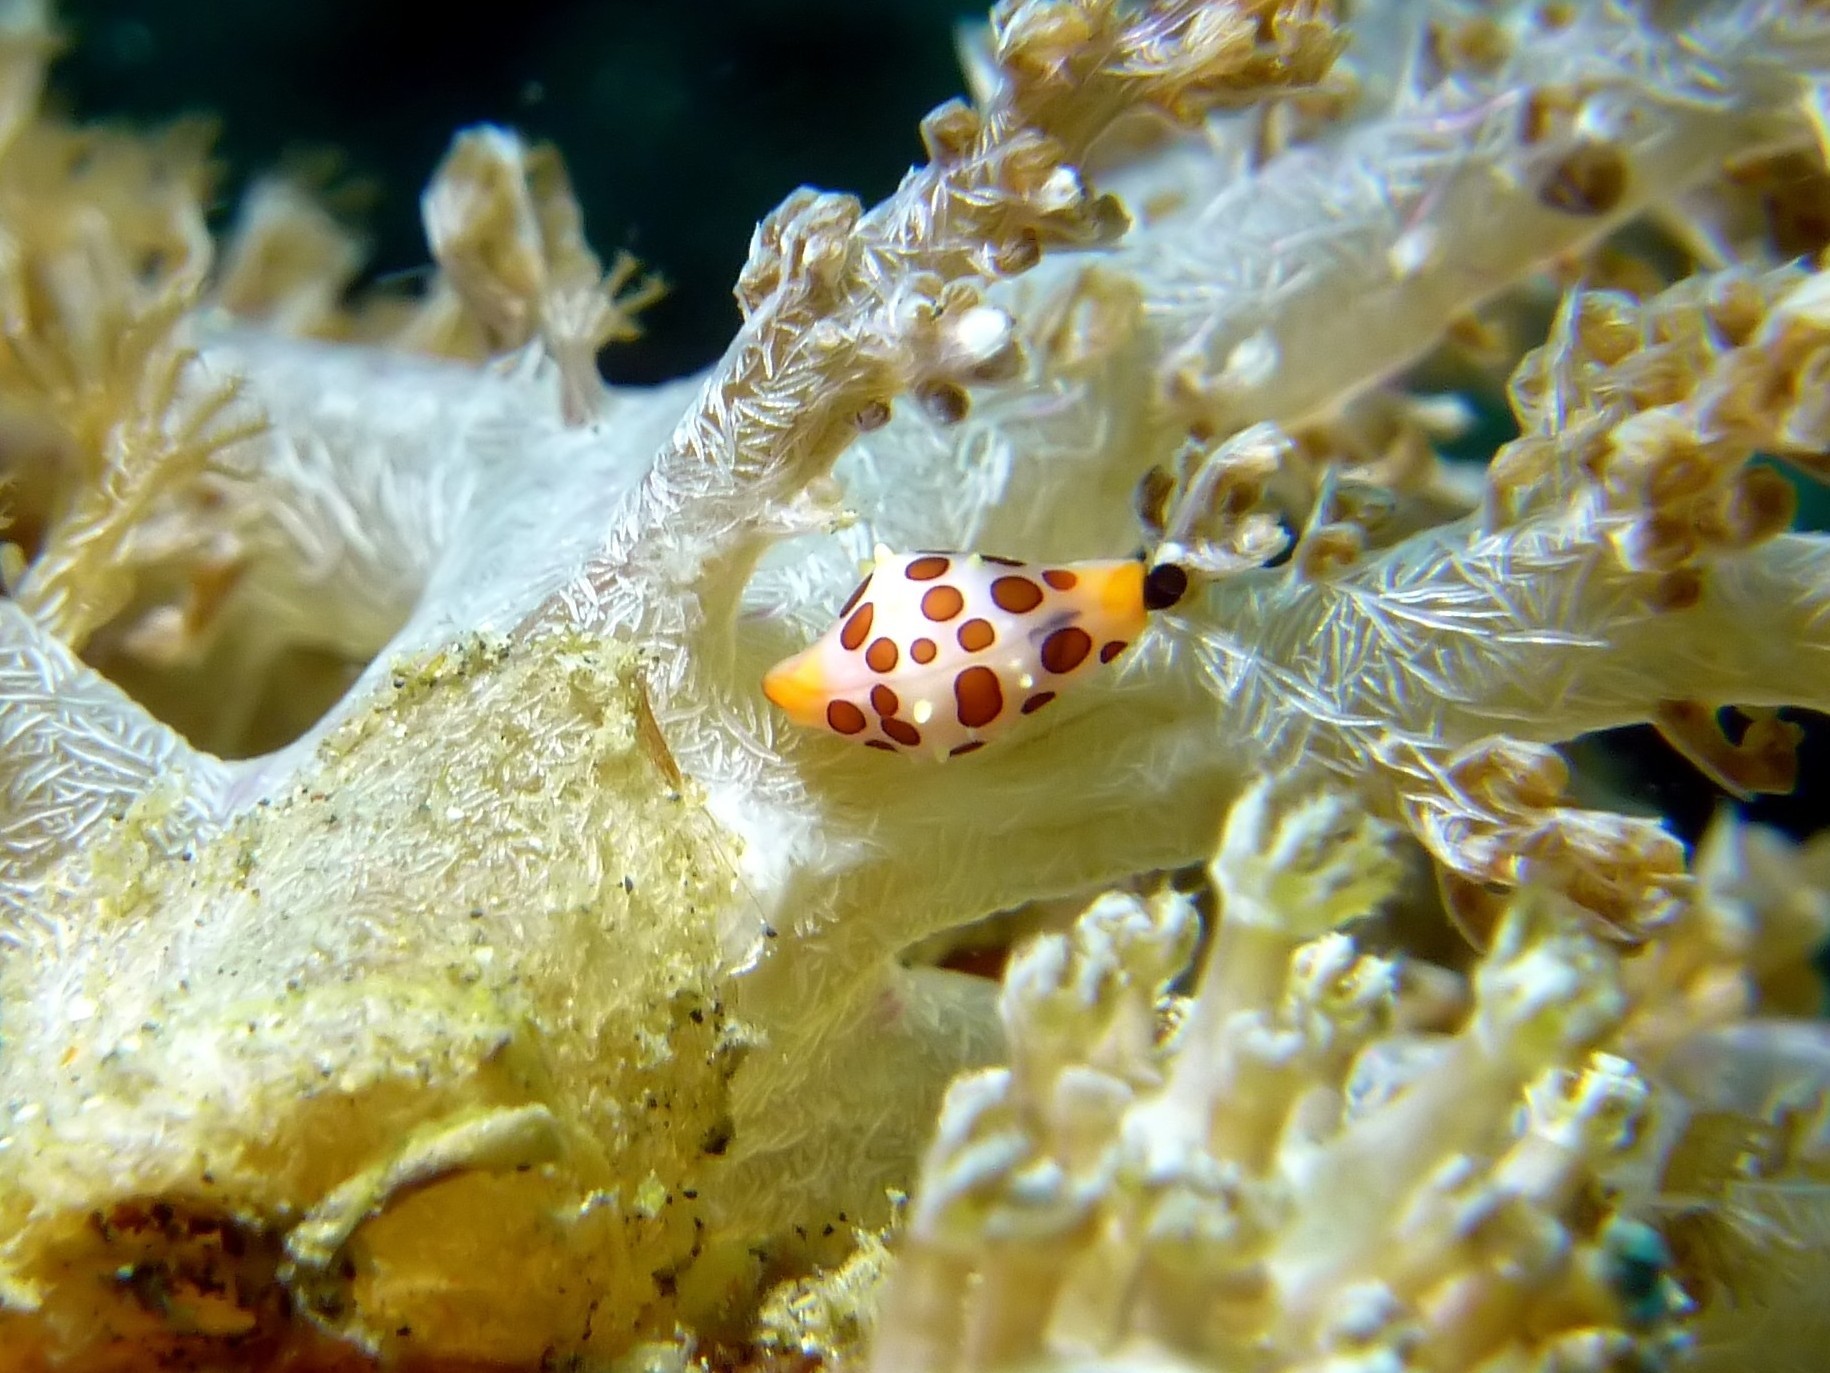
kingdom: Animalia
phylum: Mollusca
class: Gastropoda
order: Littorinimorpha
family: Ovulidae
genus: Primovula
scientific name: Primovula rosewateri
